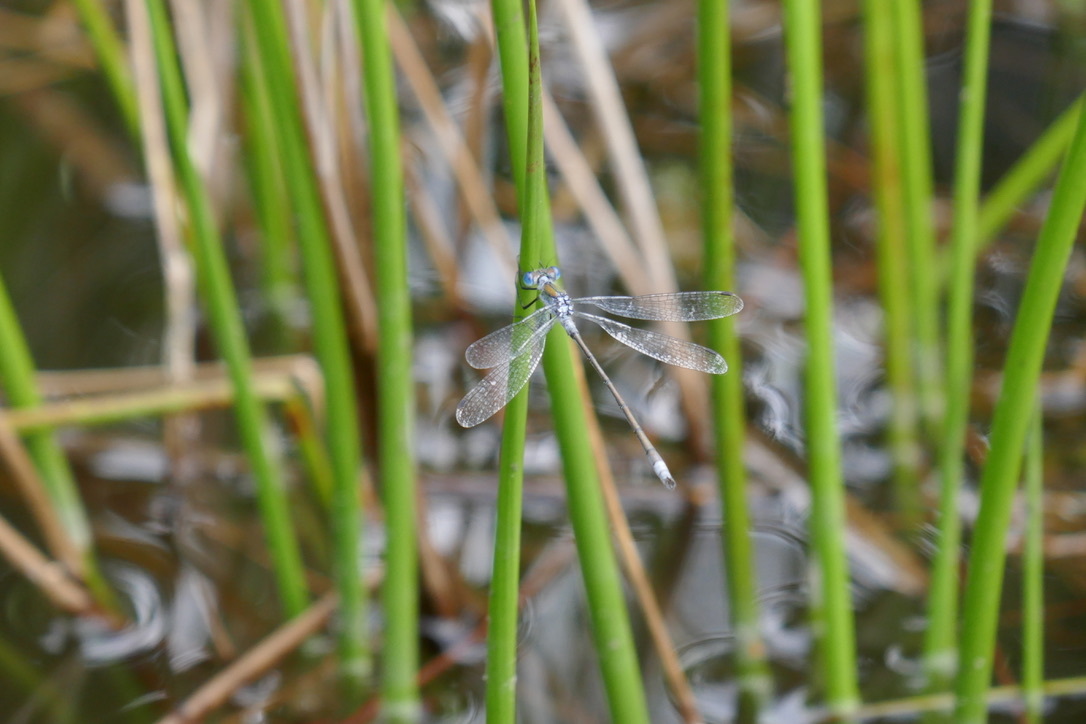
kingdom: Animalia
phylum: Arthropoda
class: Insecta
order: Odonata
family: Lestidae
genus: Lestes
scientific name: Lestes sponsa
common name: Common spreadwing
